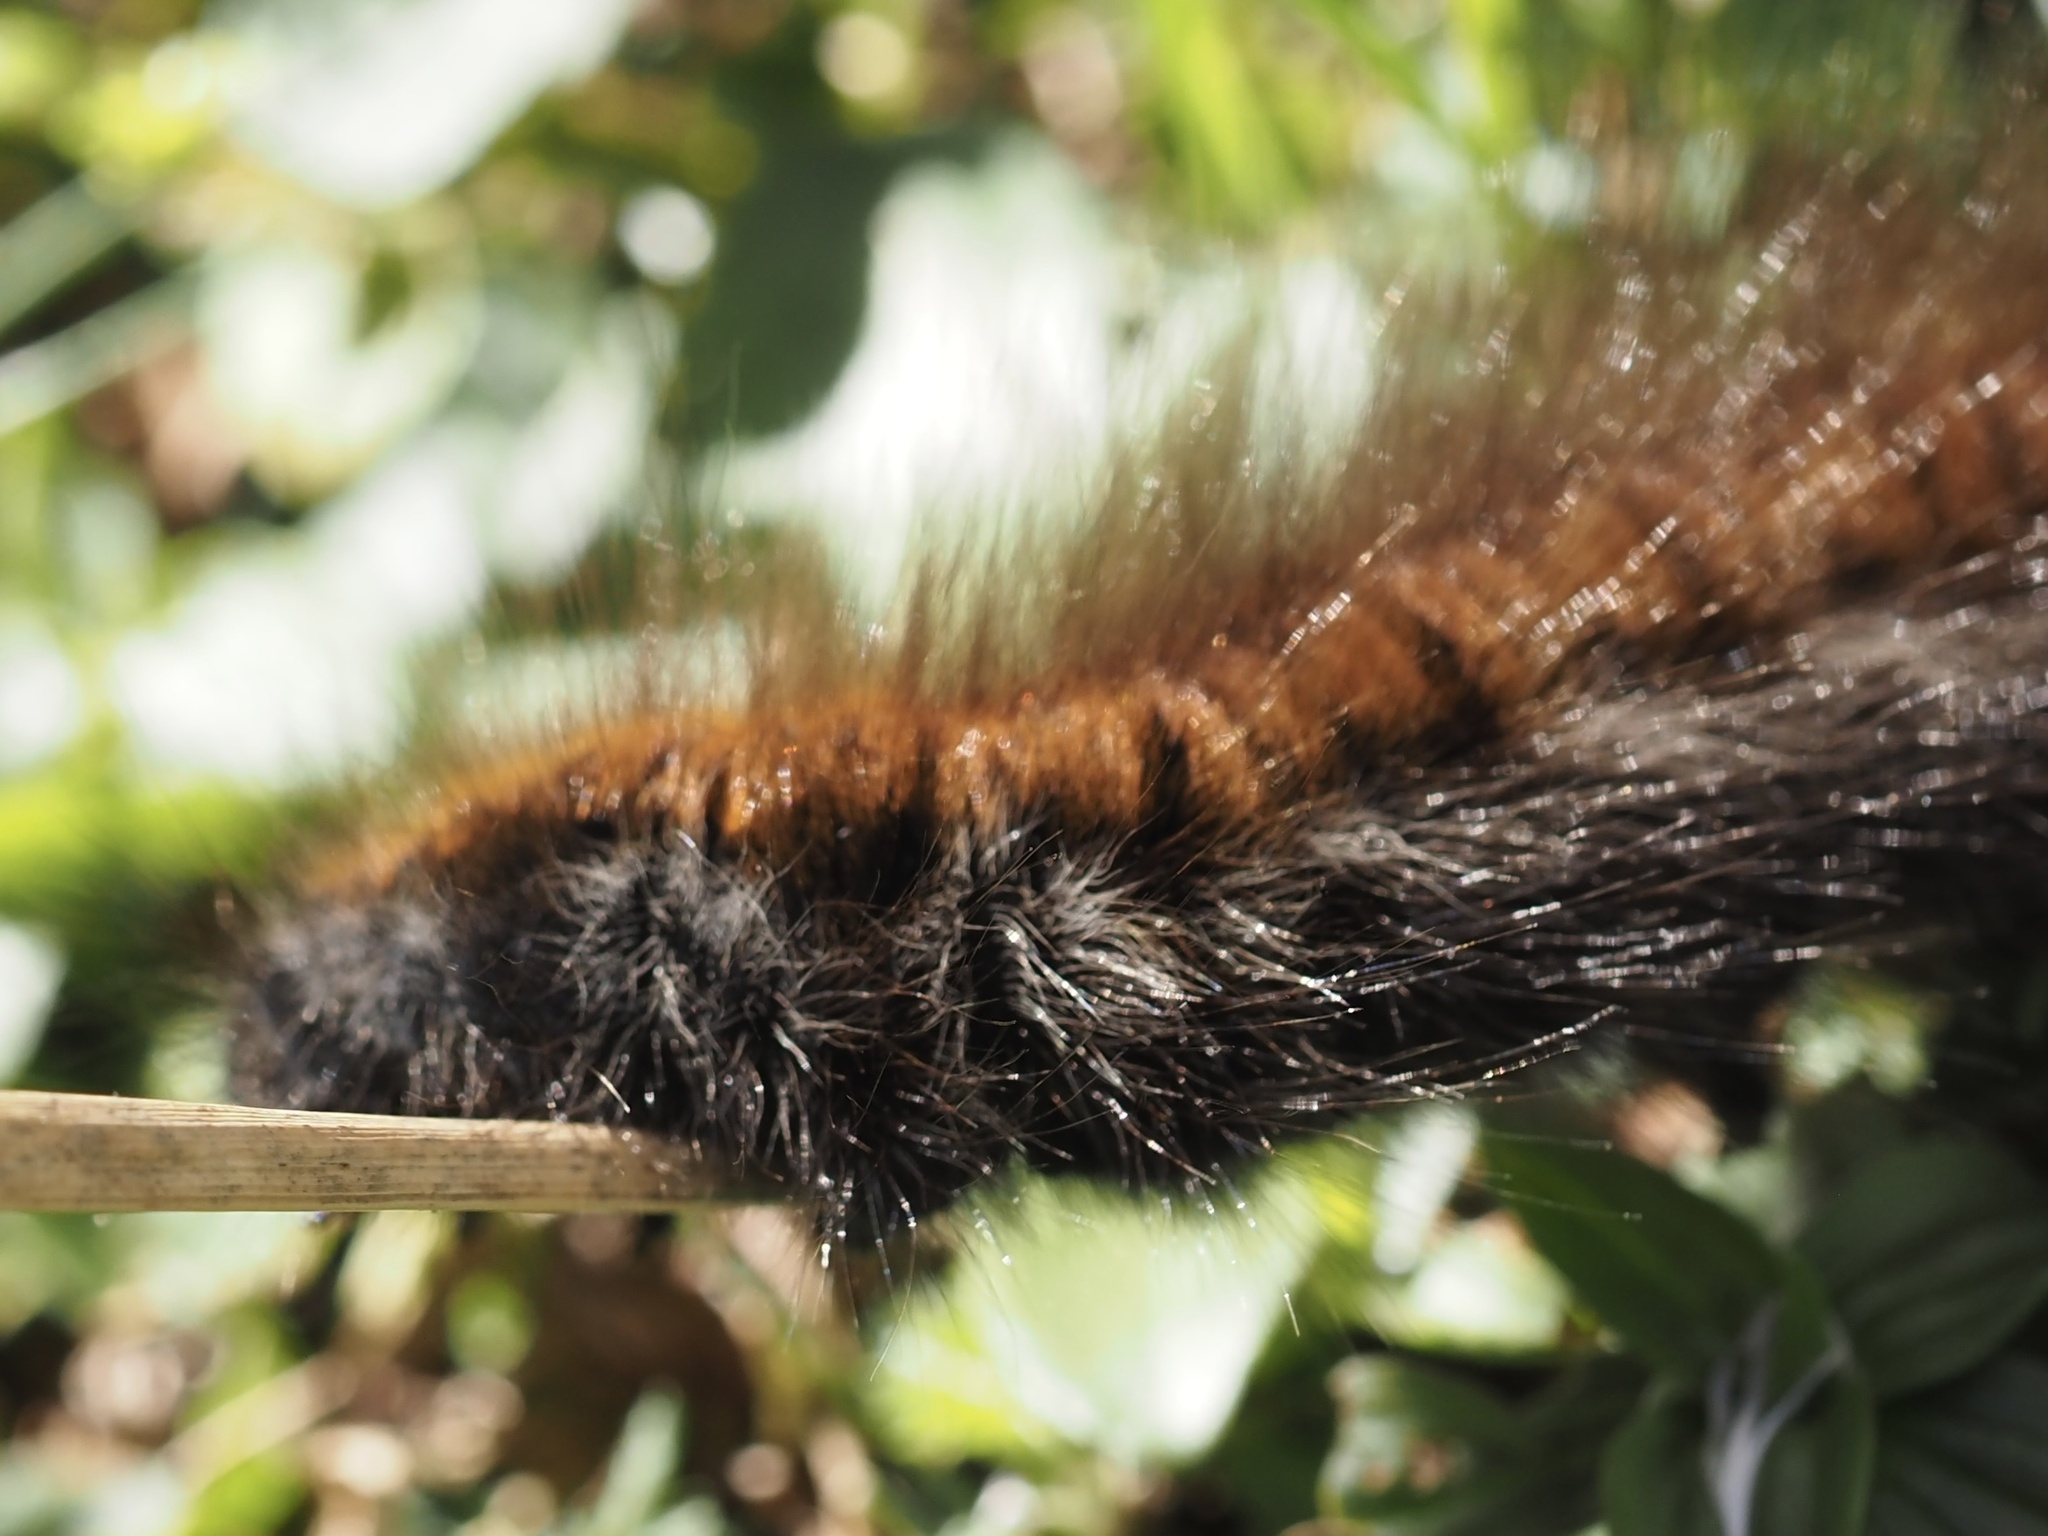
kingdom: Animalia
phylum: Arthropoda
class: Insecta
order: Lepidoptera
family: Lasiocampidae
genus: Macrothylacia
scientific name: Macrothylacia rubi
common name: Fox moth
